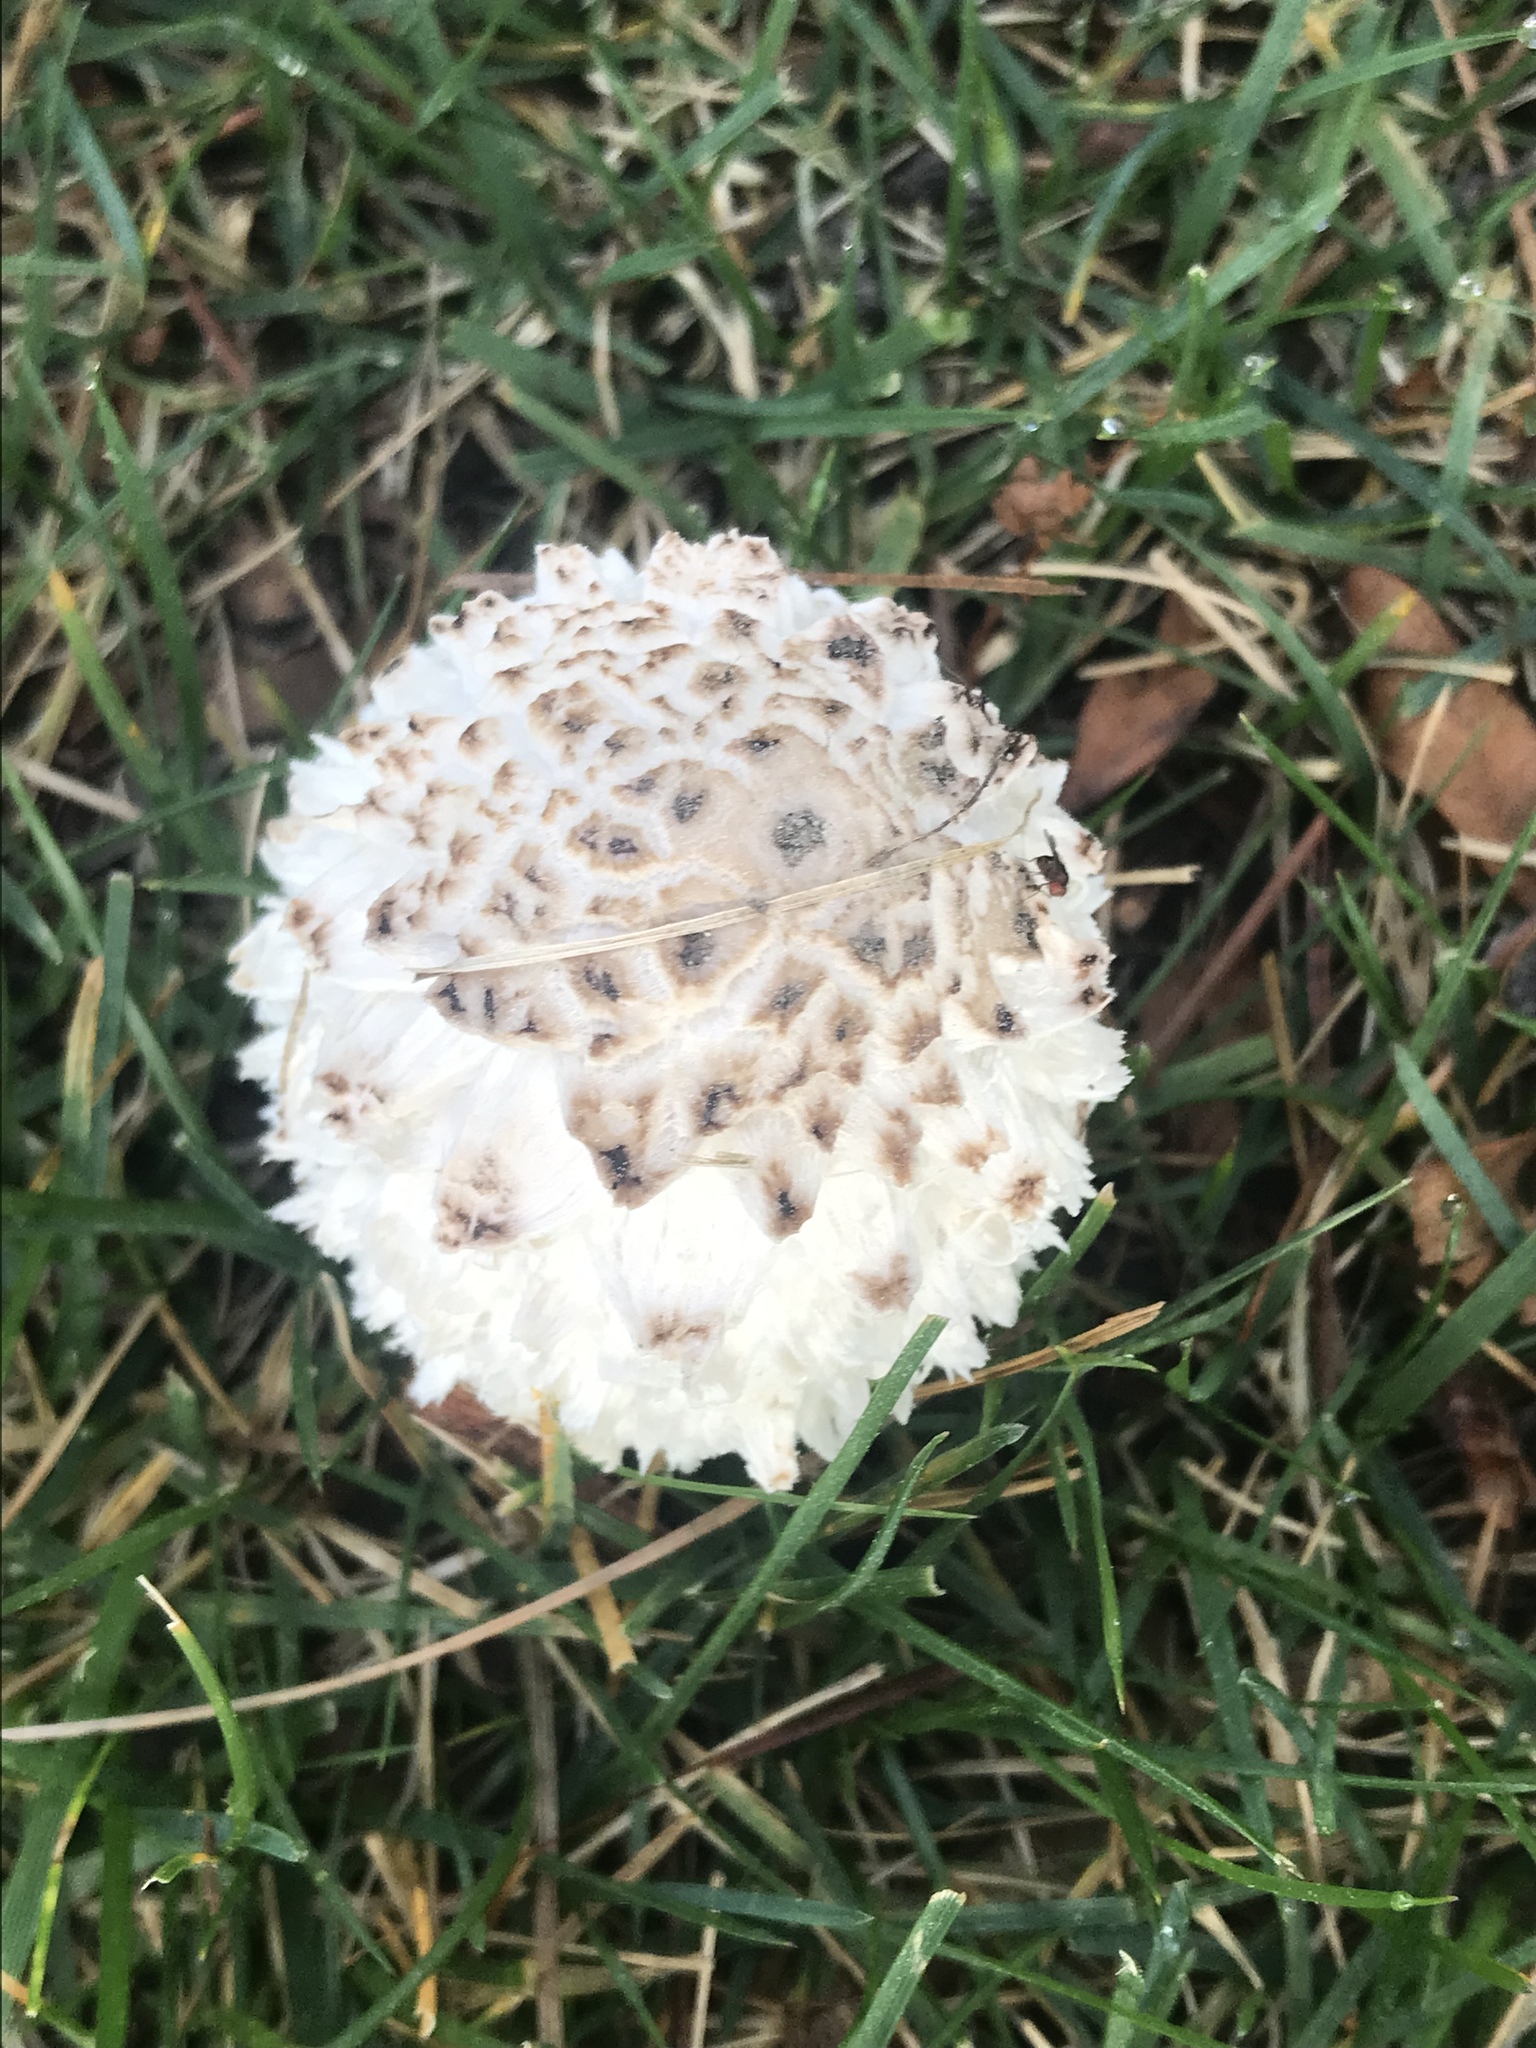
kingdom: Fungi
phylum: Basidiomycota
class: Agaricomycetes
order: Agaricales
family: Agaricaceae
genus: Coprinus
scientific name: Coprinus comatus
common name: Lawyer's wig
